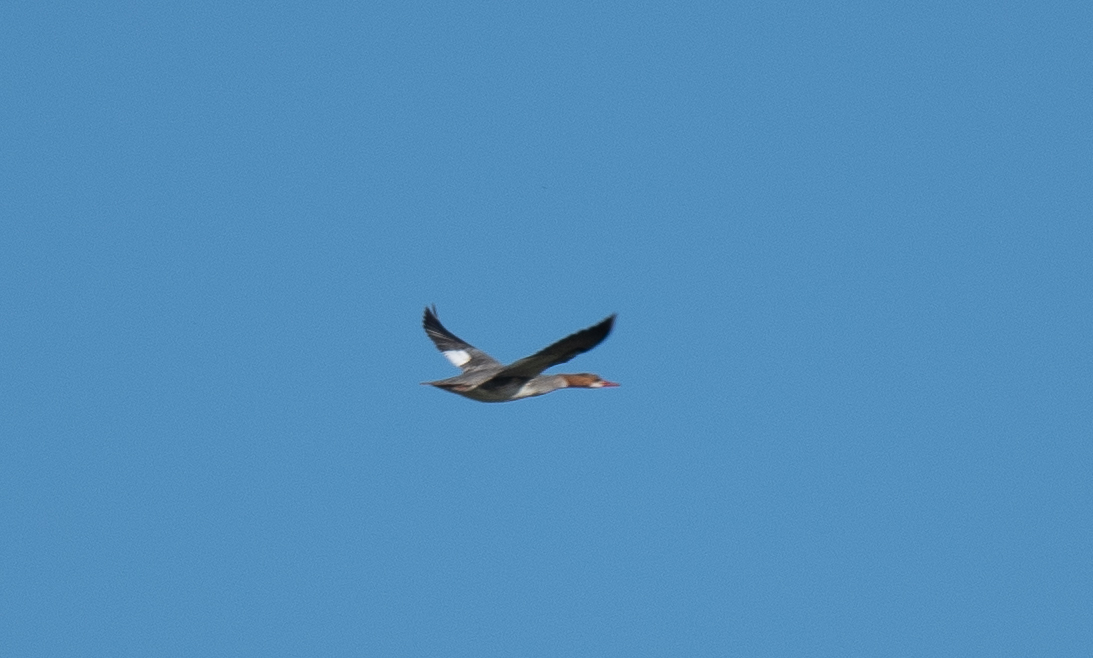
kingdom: Animalia
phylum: Chordata
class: Aves
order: Anseriformes
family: Anatidae
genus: Mergus
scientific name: Mergus merganser
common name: Common merganser
